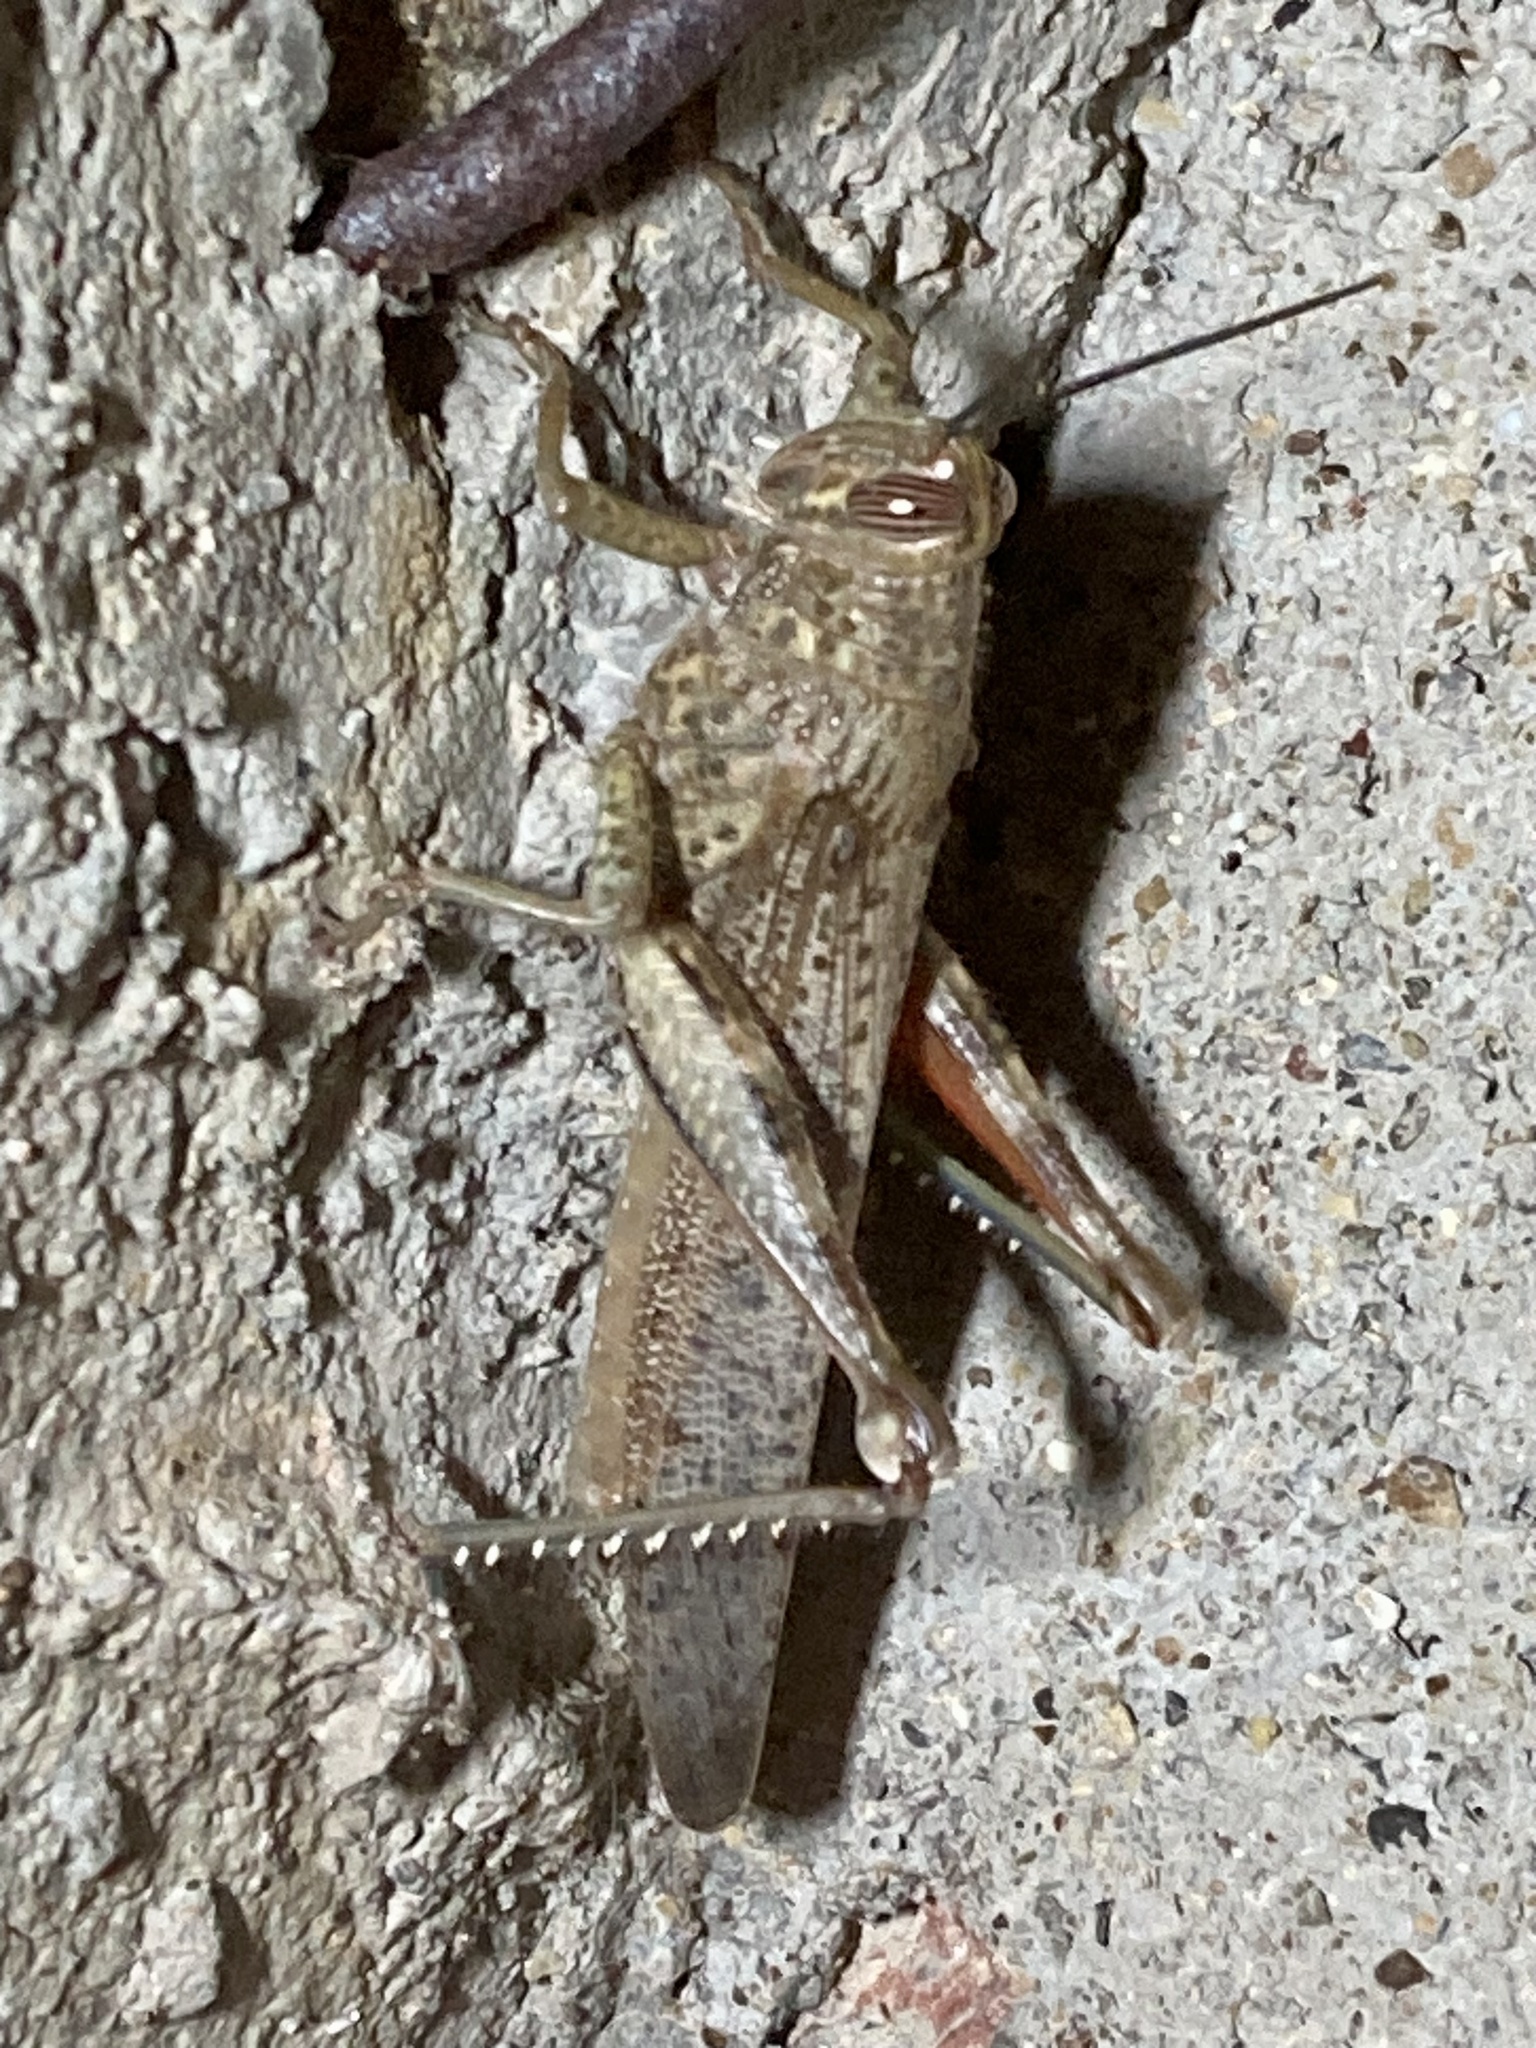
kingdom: Animalia
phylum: Arthropoda
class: Insecta
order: Orthoptera
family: Acrididae
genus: Anacridium
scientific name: Anacridium aegyptium
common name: Egyptian grasshopper
